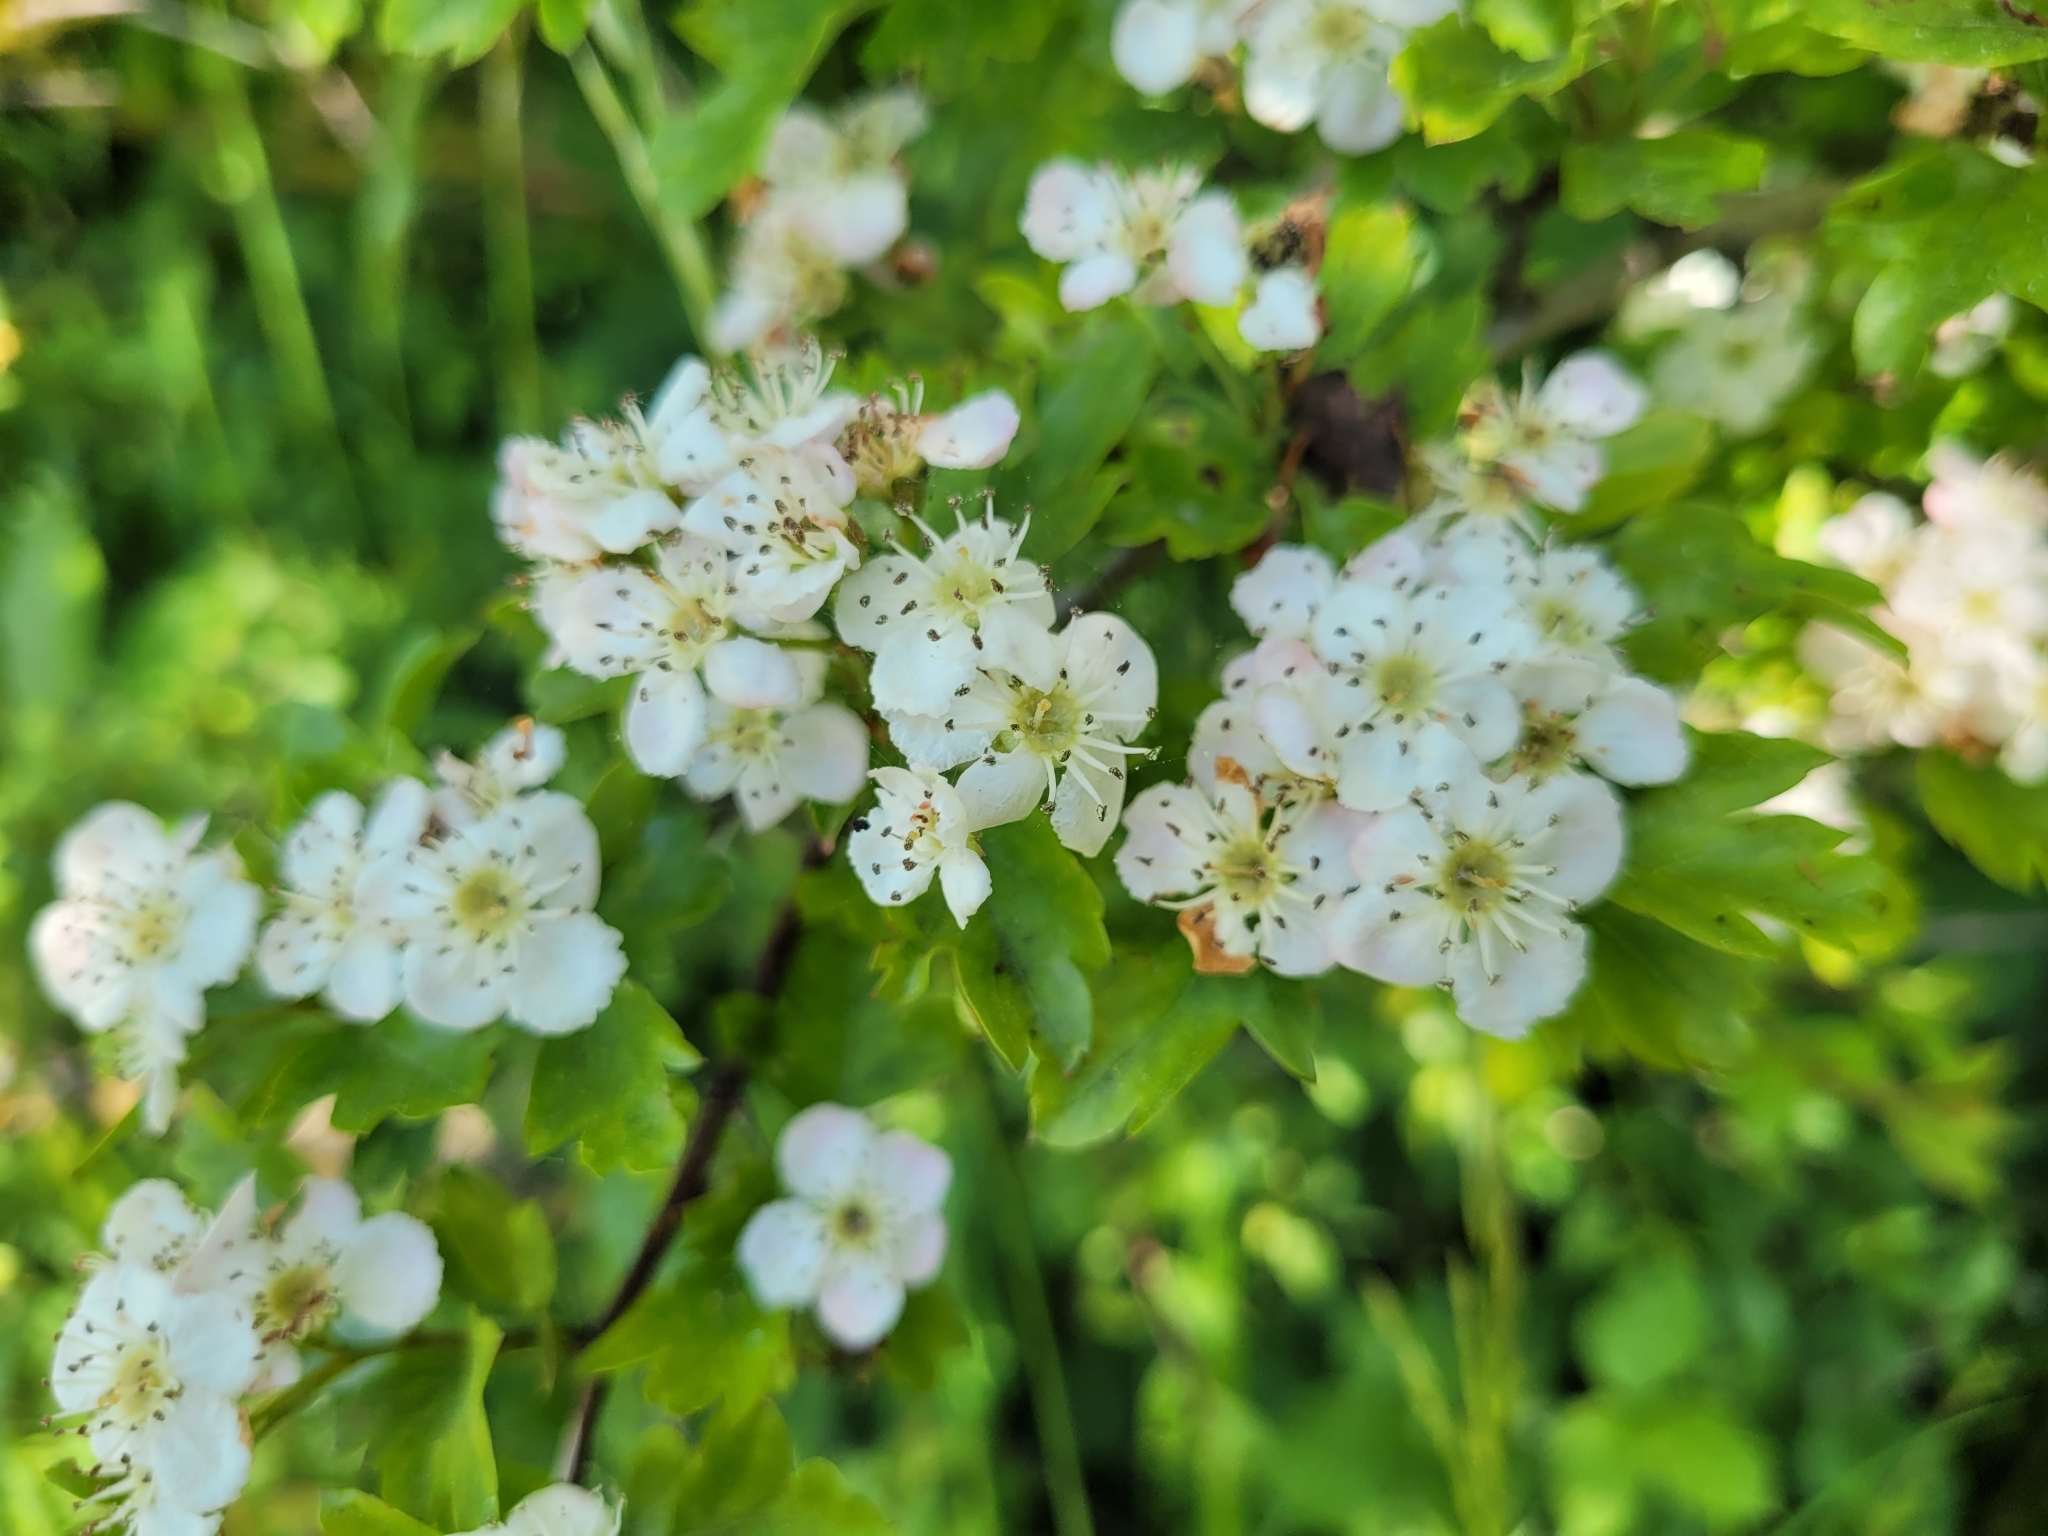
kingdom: Plantae
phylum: Tracheophyta
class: Magnoliopsida
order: Rosales
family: Rosaceae
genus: Crataegus
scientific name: Crataegus monogyna
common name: Hawthorn
